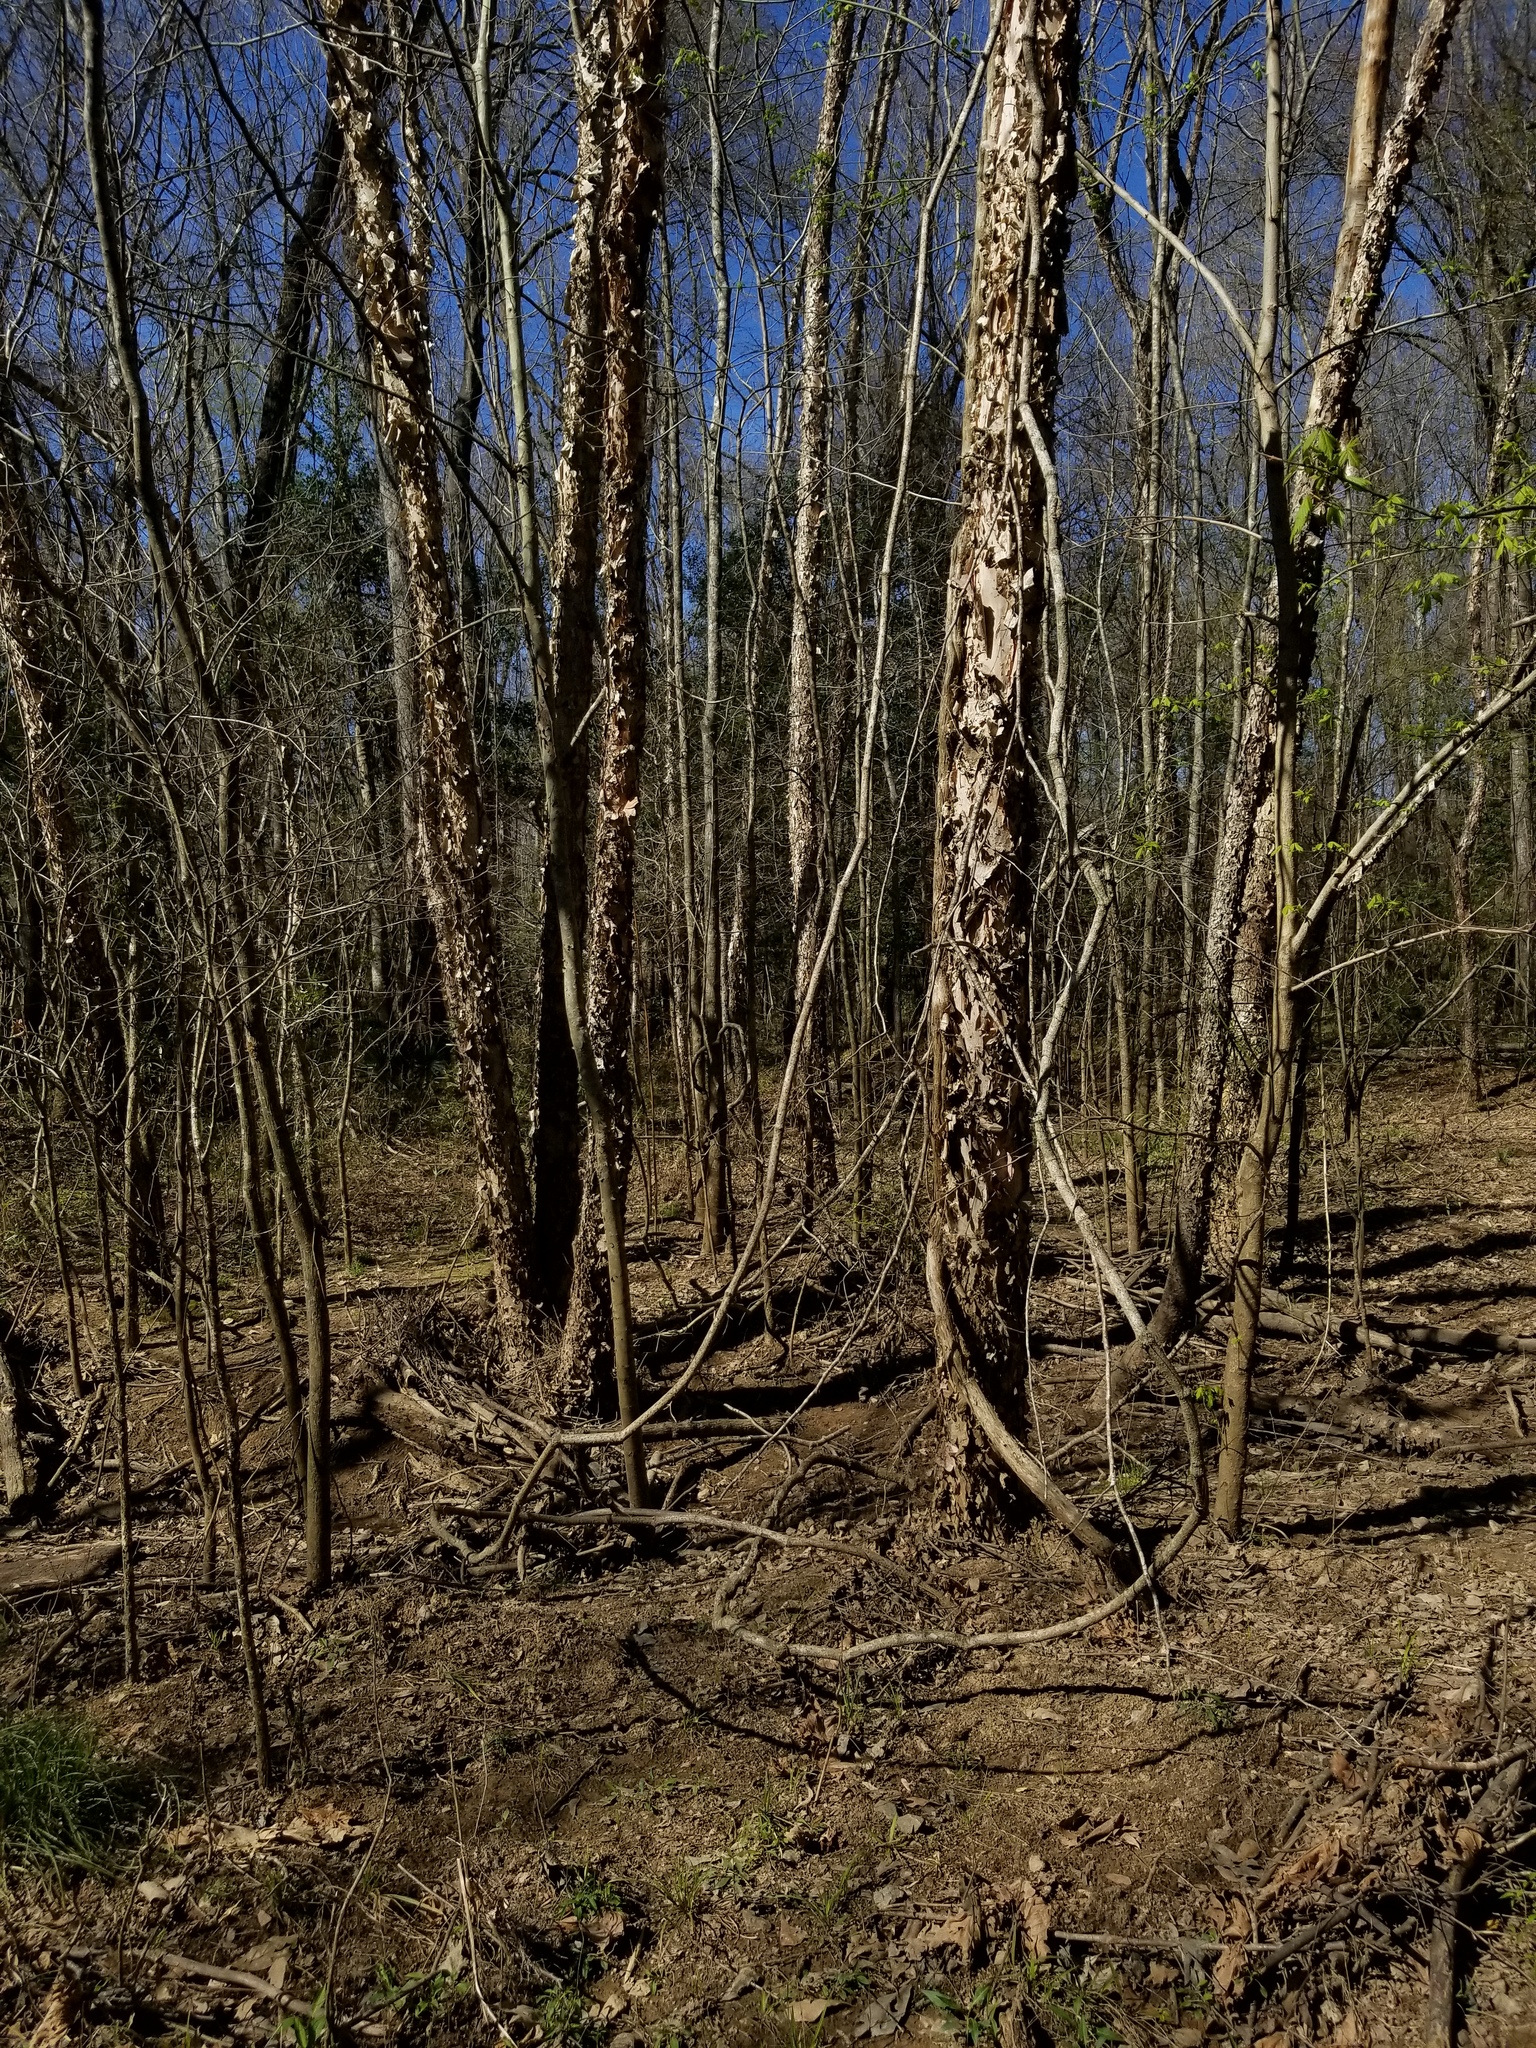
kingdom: Plantae
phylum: Tracheophyta
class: Magnoliopsida
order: Fagales
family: Betulaceae
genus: Betula
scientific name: Betula nigra
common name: Black birch
